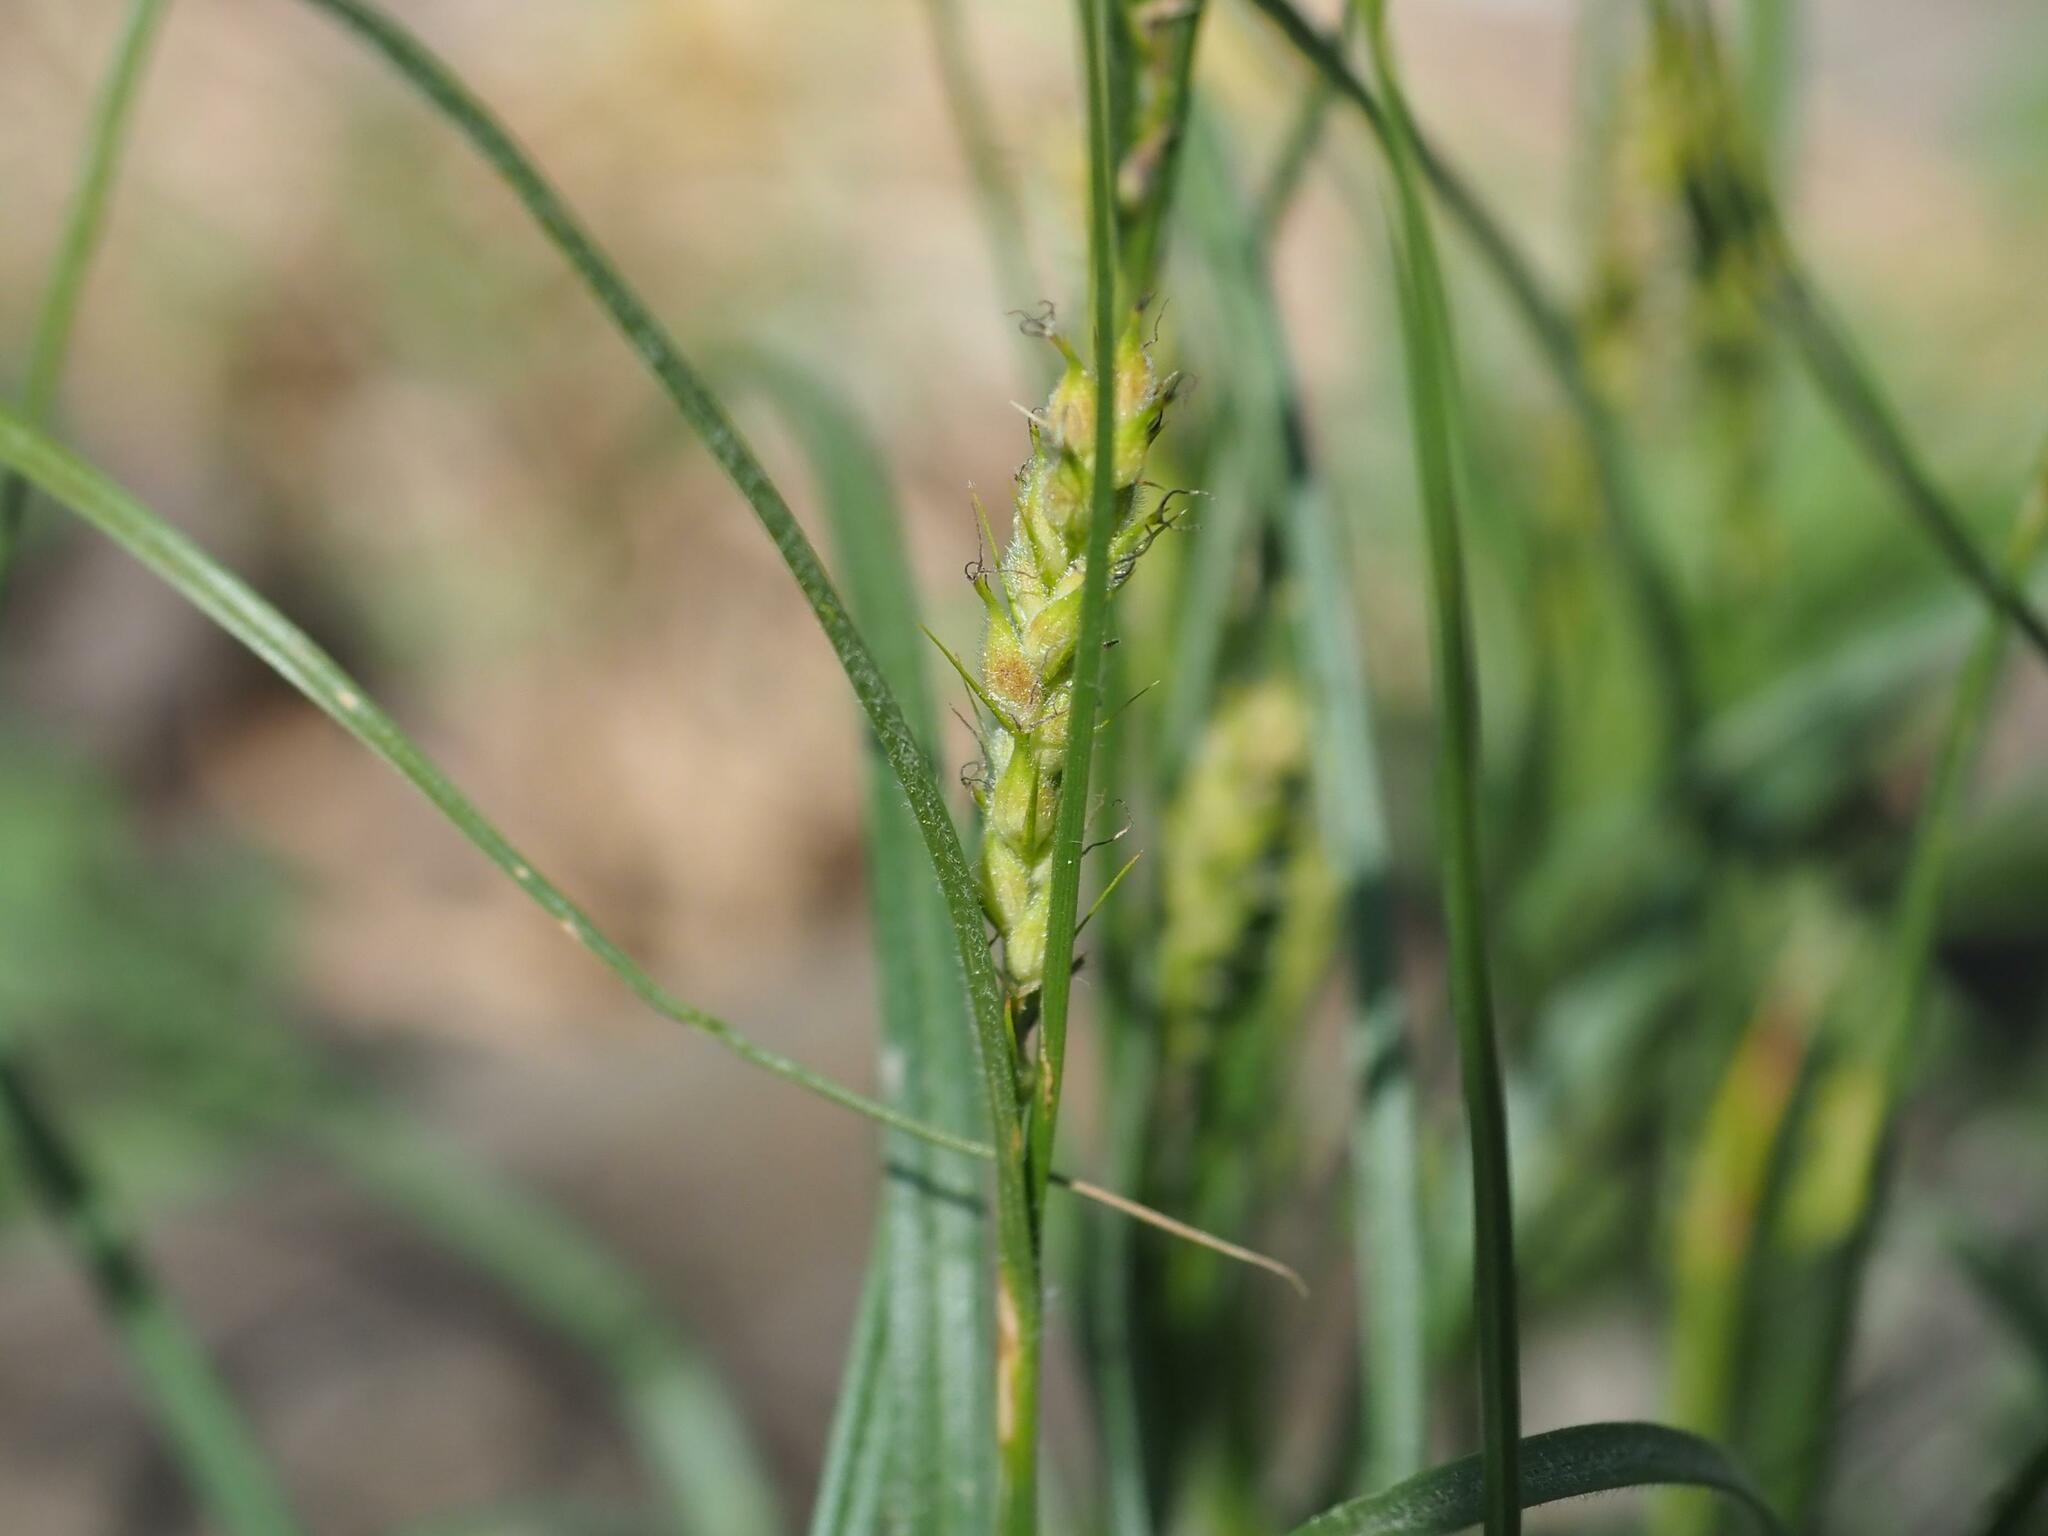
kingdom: Plantae
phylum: Tracheophyta
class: Liliopsida
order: Poales
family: Cyperaceae
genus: Carex
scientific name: Carex hirta
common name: Hairy sedge
